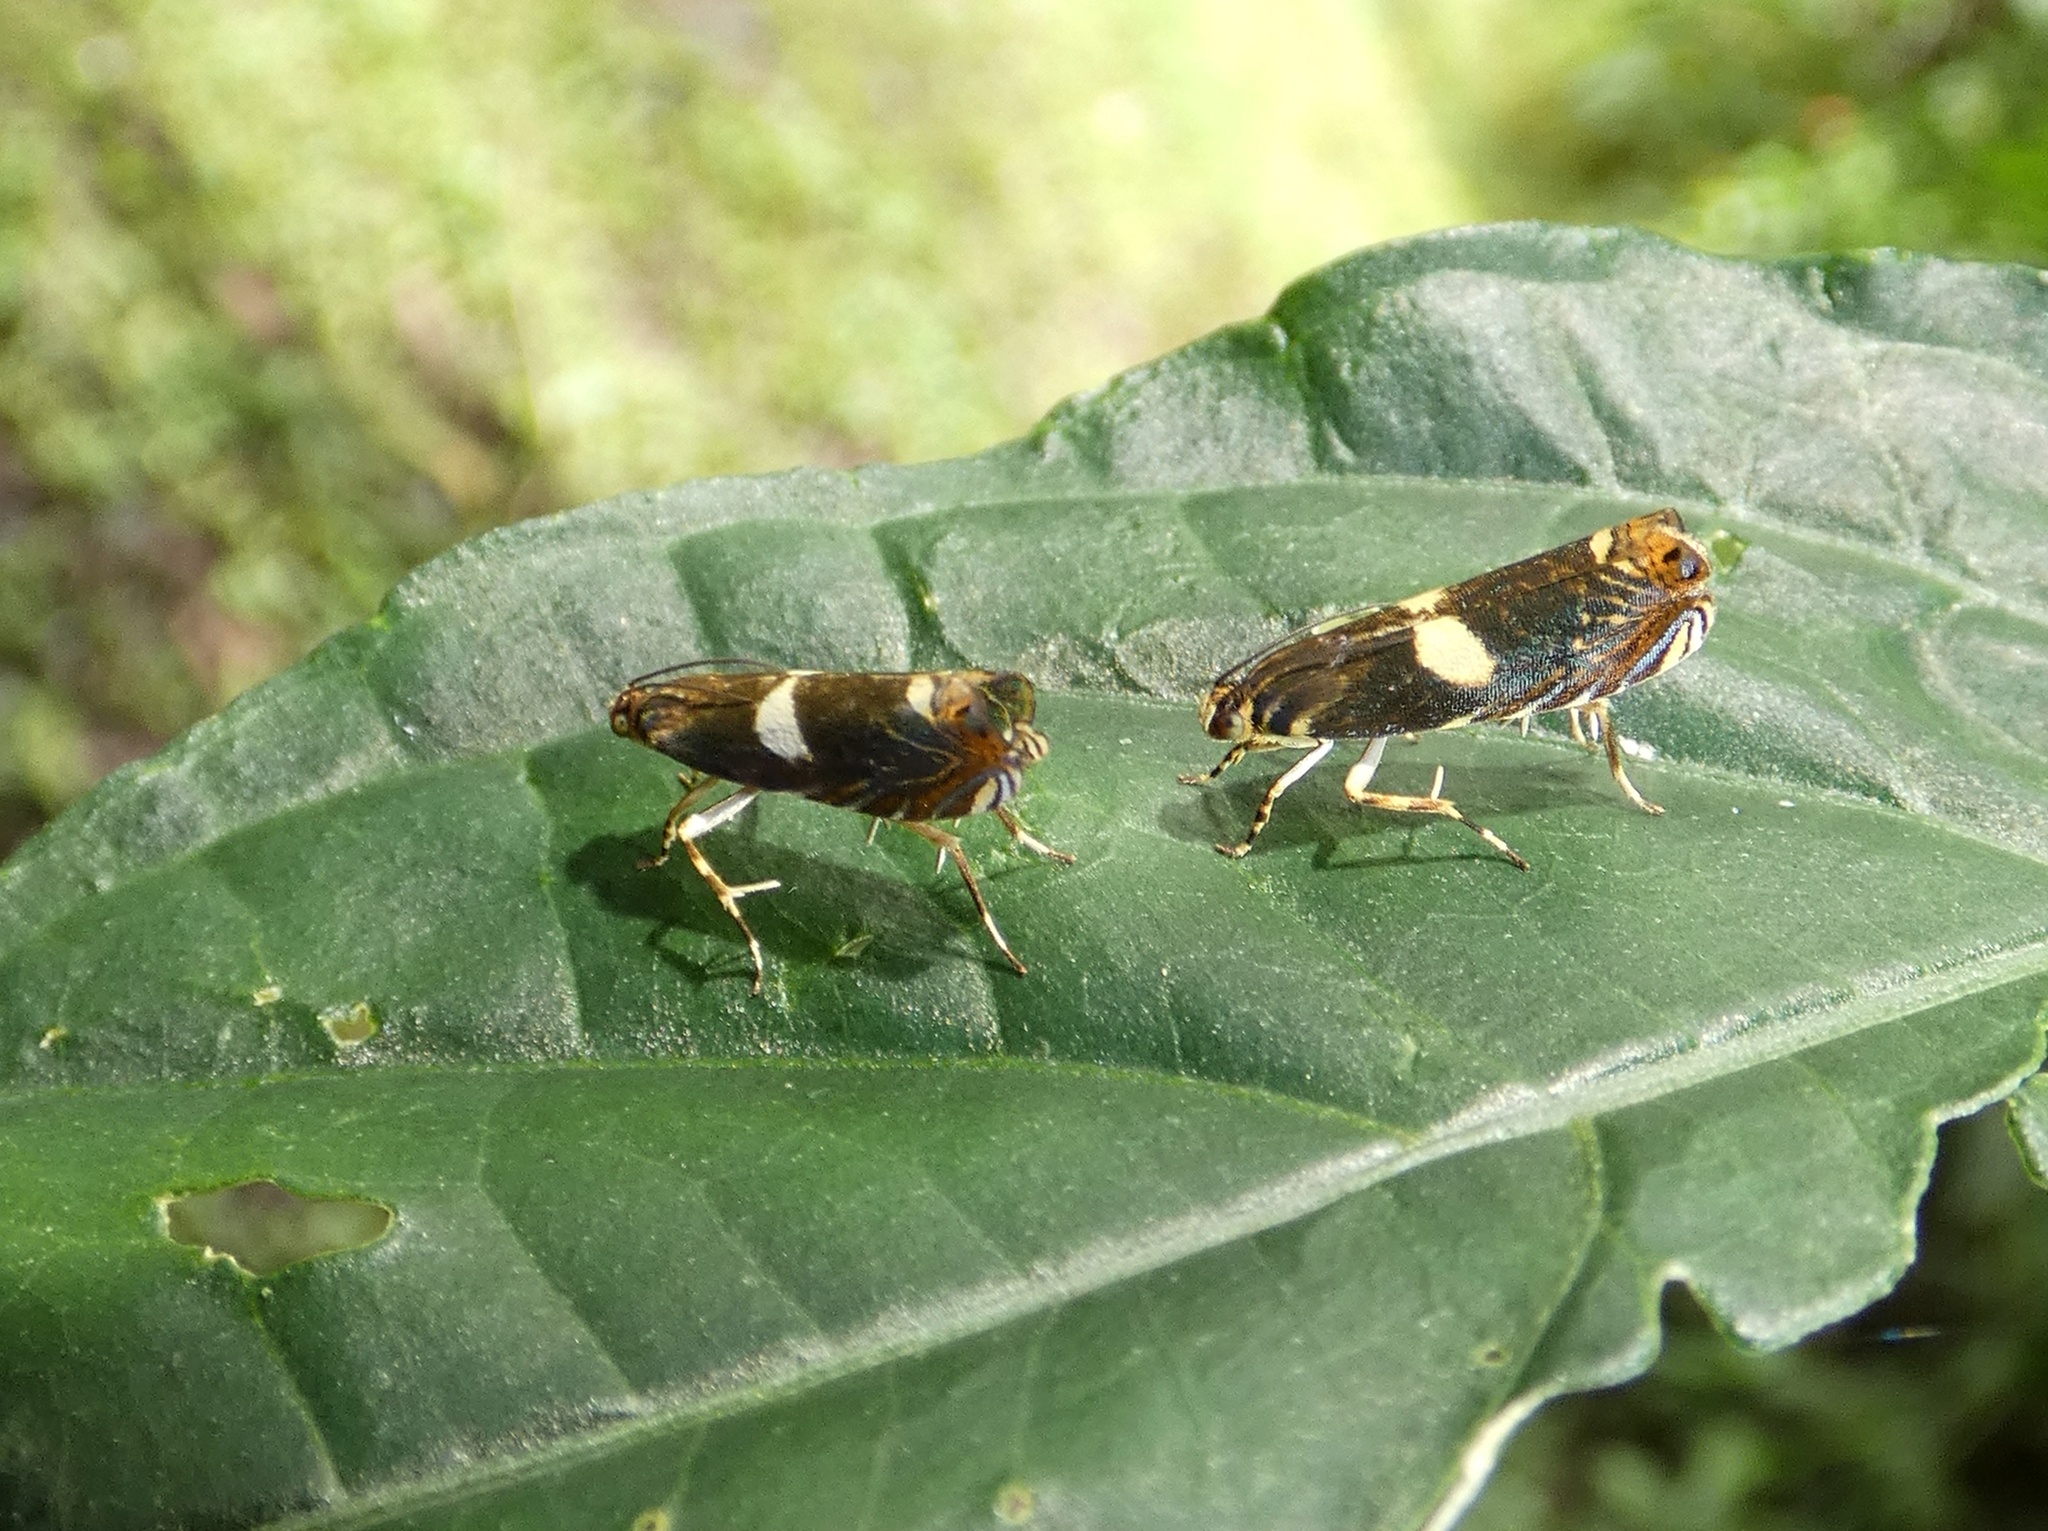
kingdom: Animalia
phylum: Arthropoda
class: Insecta
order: Lepidoptera
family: Tortricidae
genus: Hilarographa
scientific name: Hilarographa ribbei
